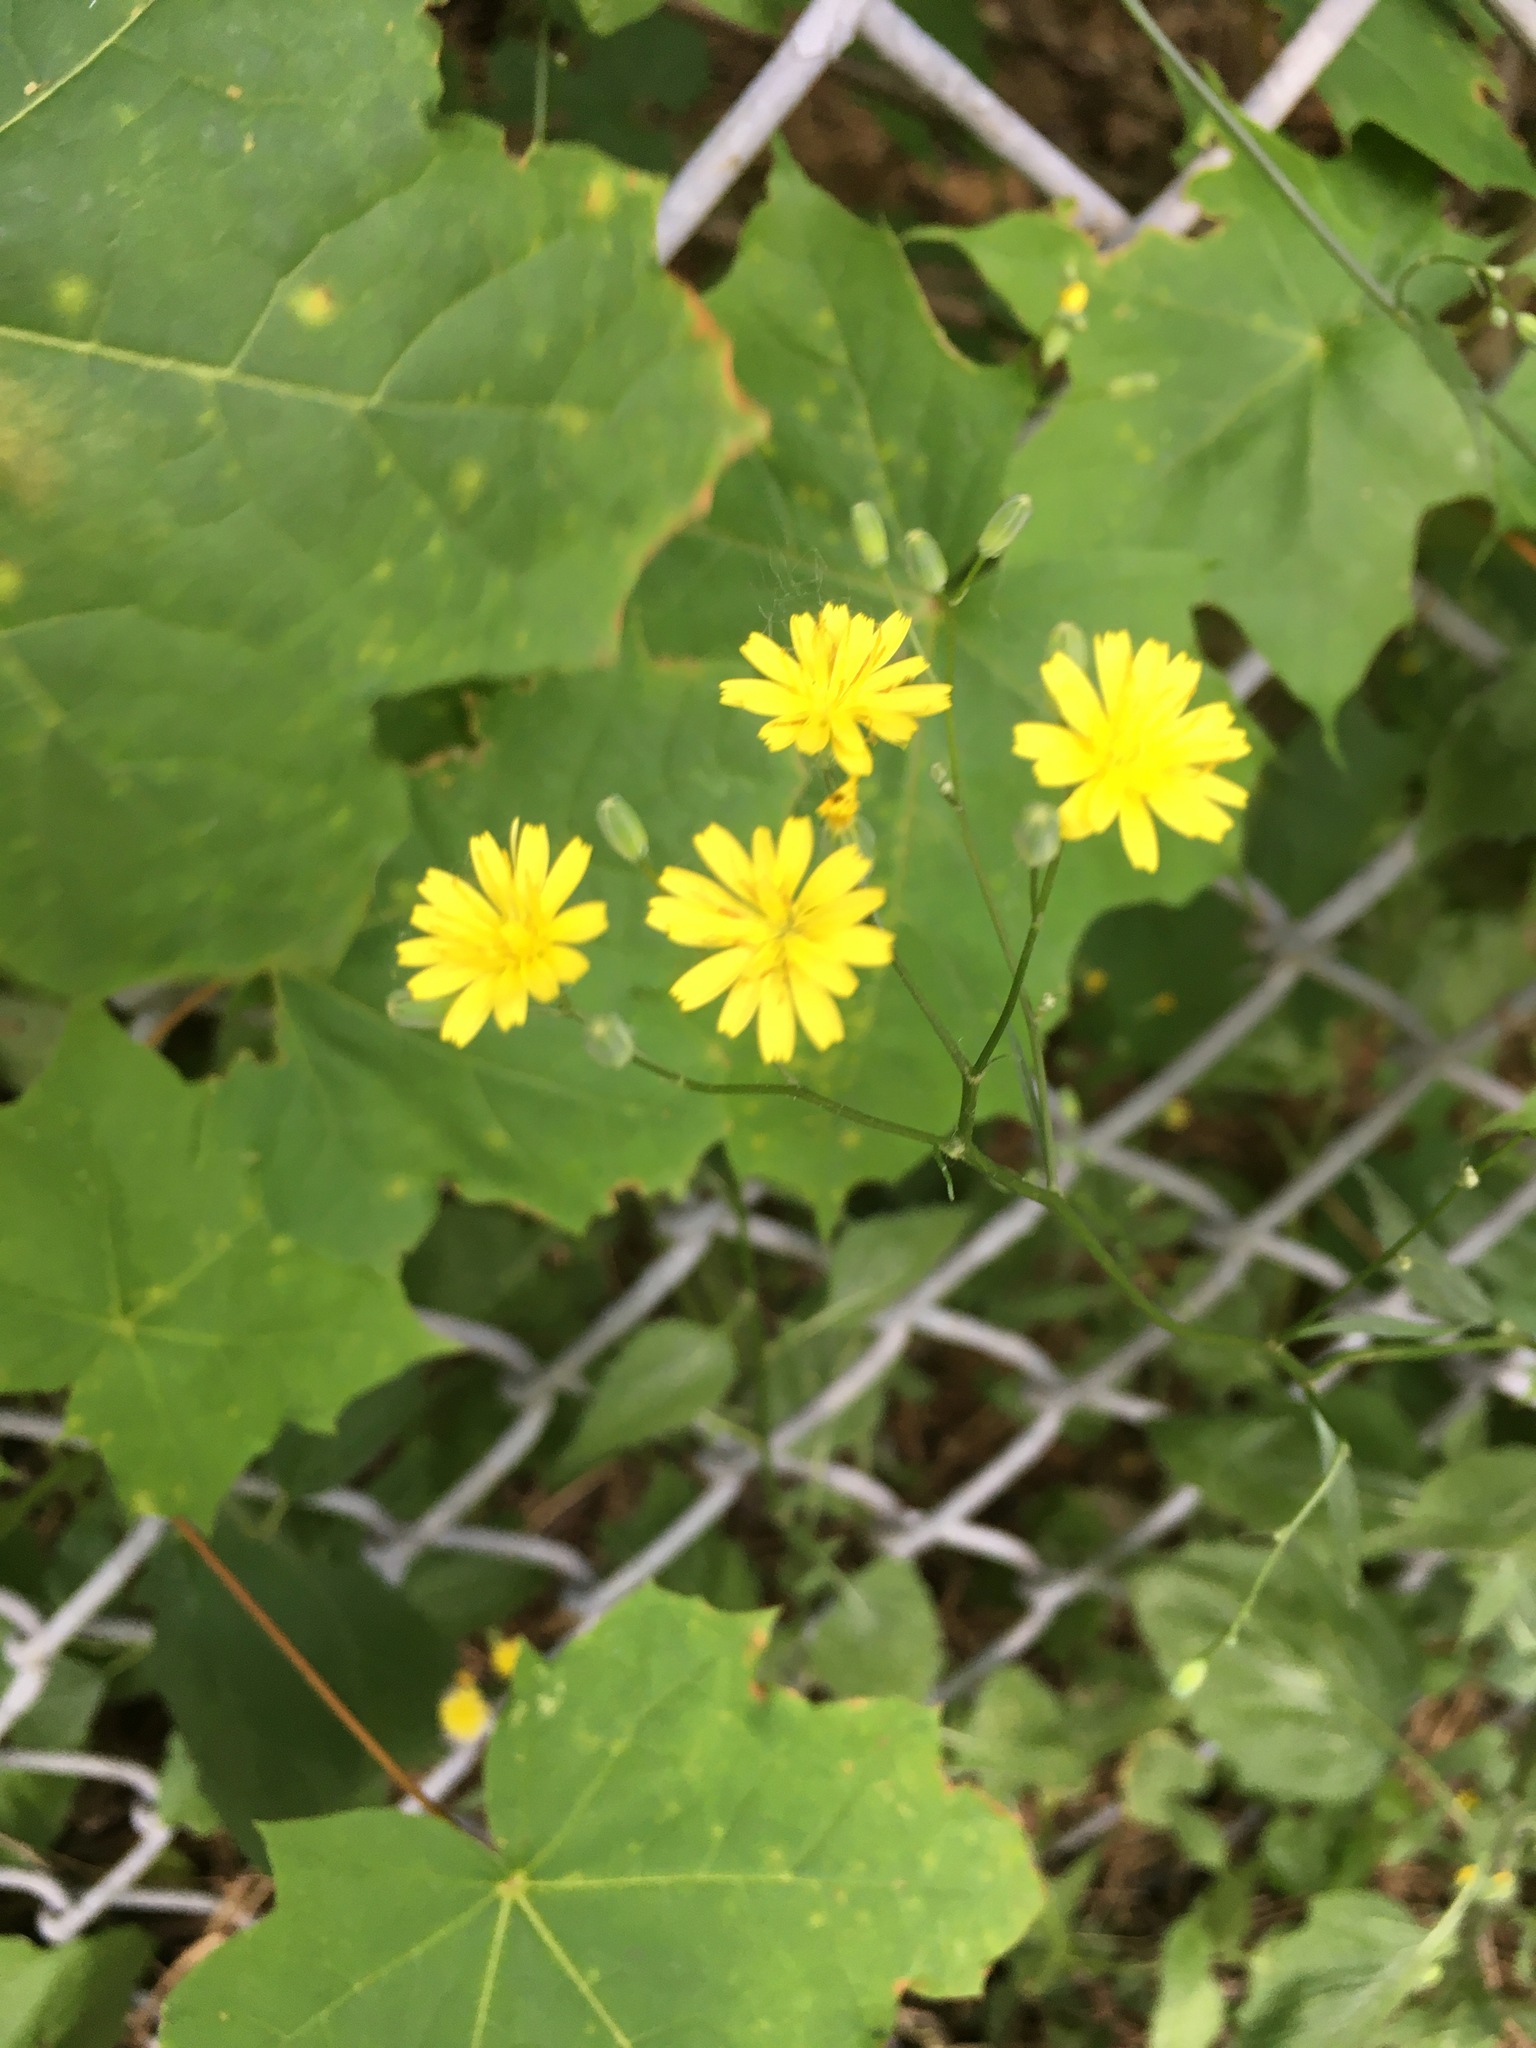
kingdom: Plantae
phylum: Tracheophyta
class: Magnoliopsida
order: Asterales
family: Asteraceae
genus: Lapsana
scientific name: Lapsana communis
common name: Nipplewort
